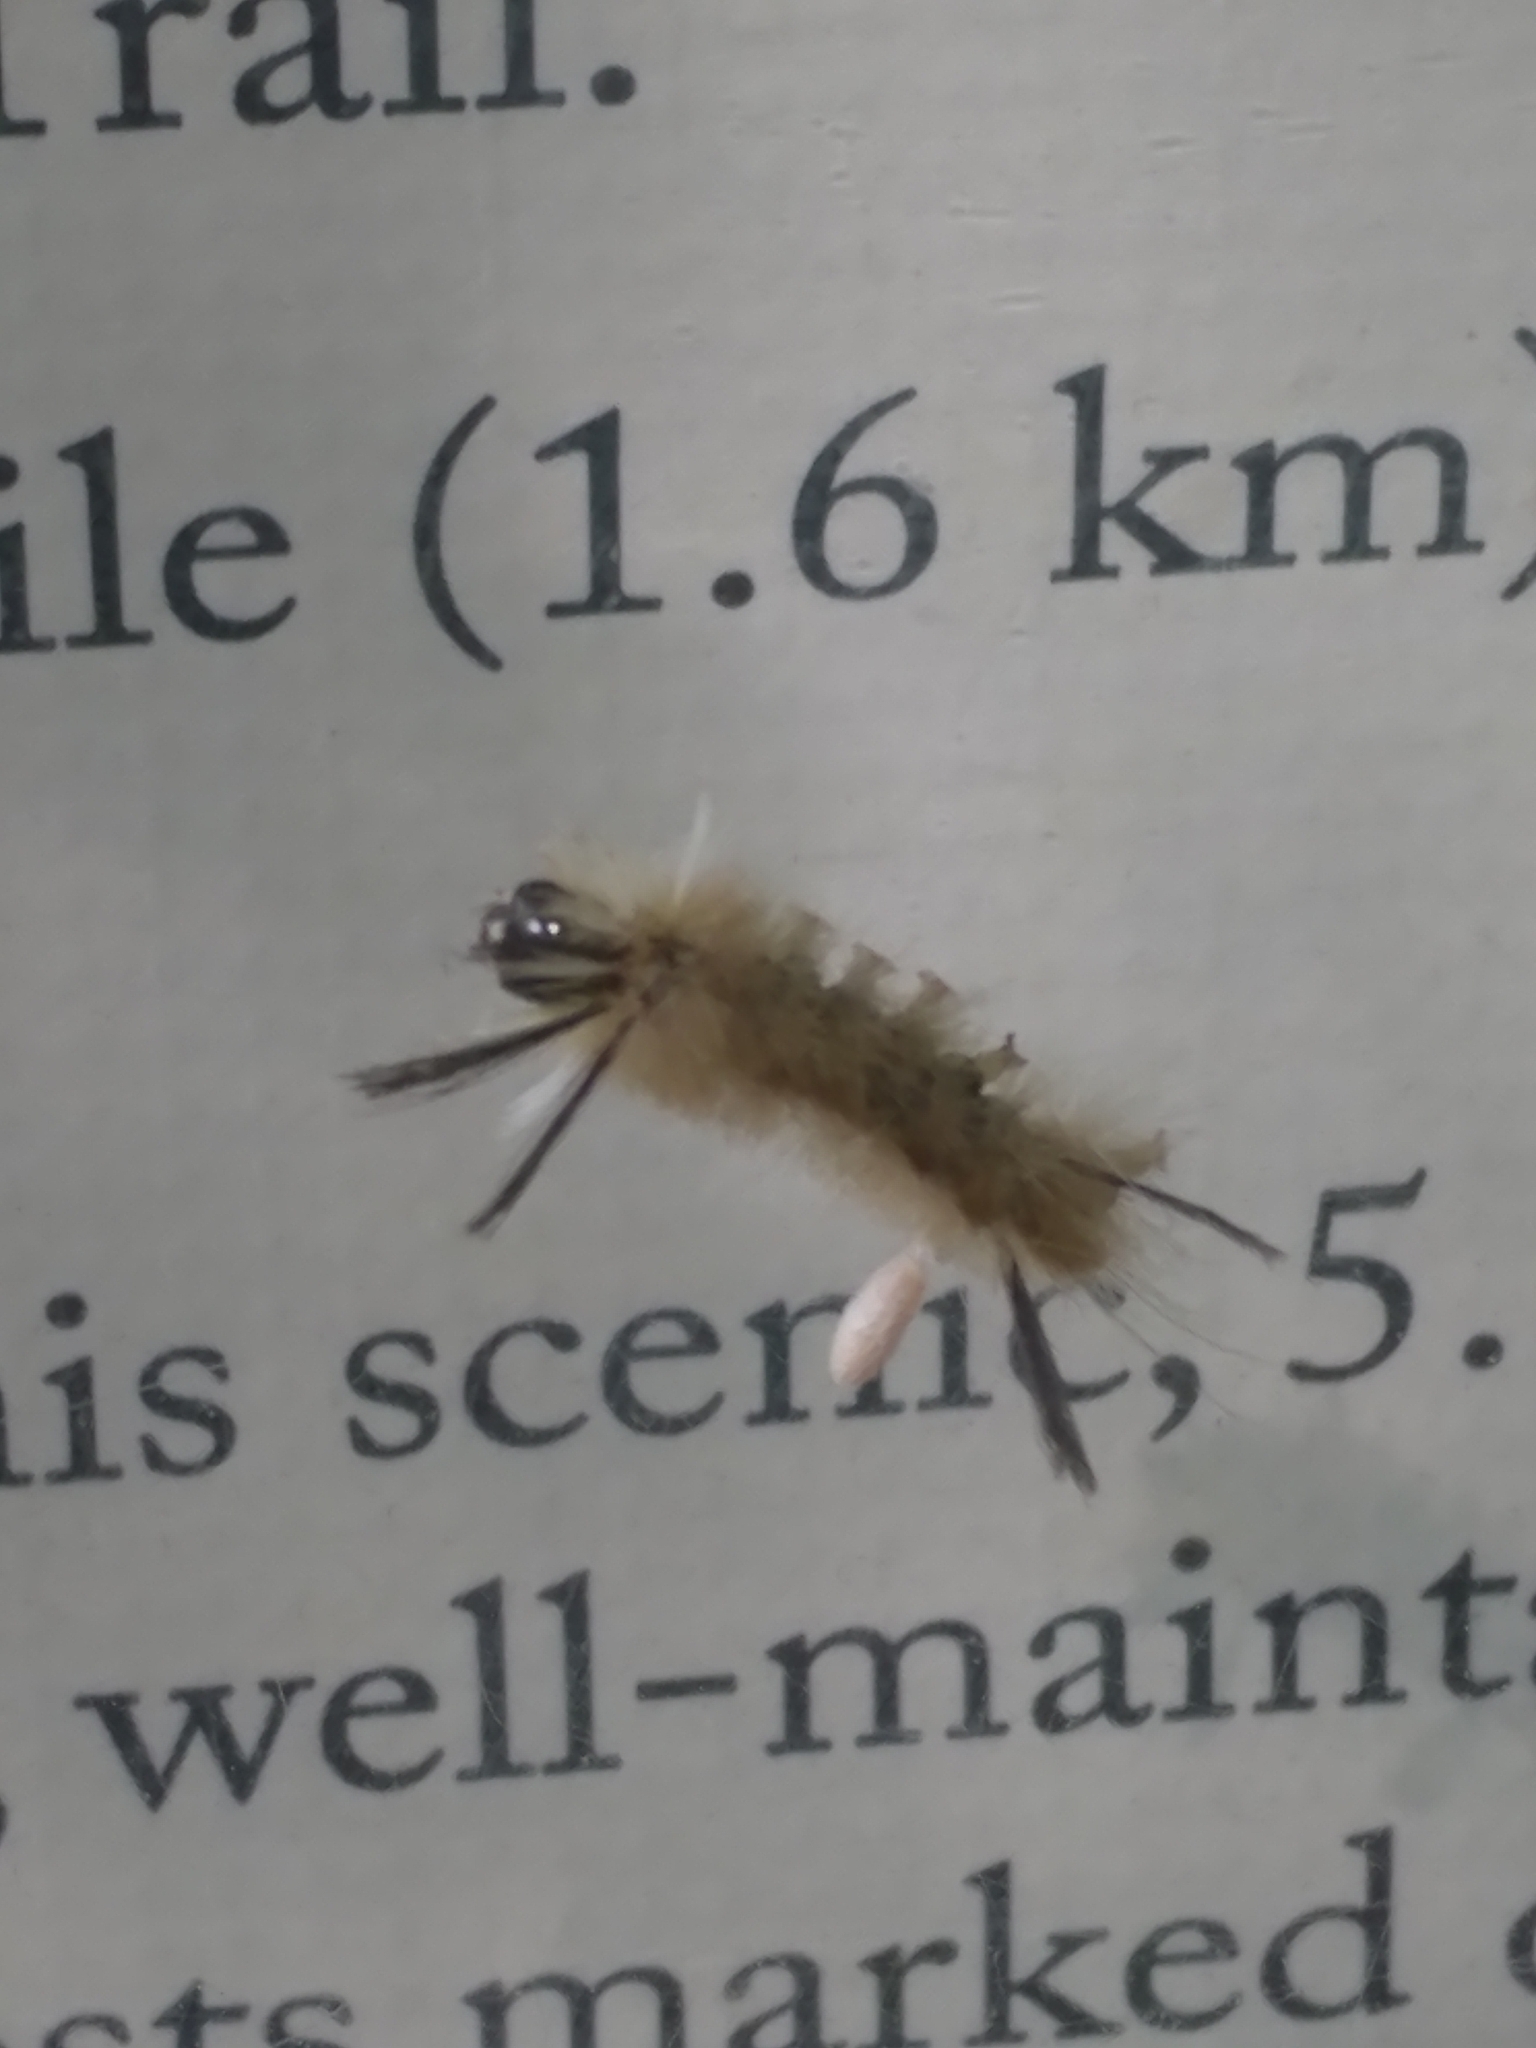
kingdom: Animalia
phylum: Arthropoda
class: Insecta
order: Lepidoptera
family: Erebidae
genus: Halysidota
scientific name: Halysidota tessellaris
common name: Banded tussock moth
